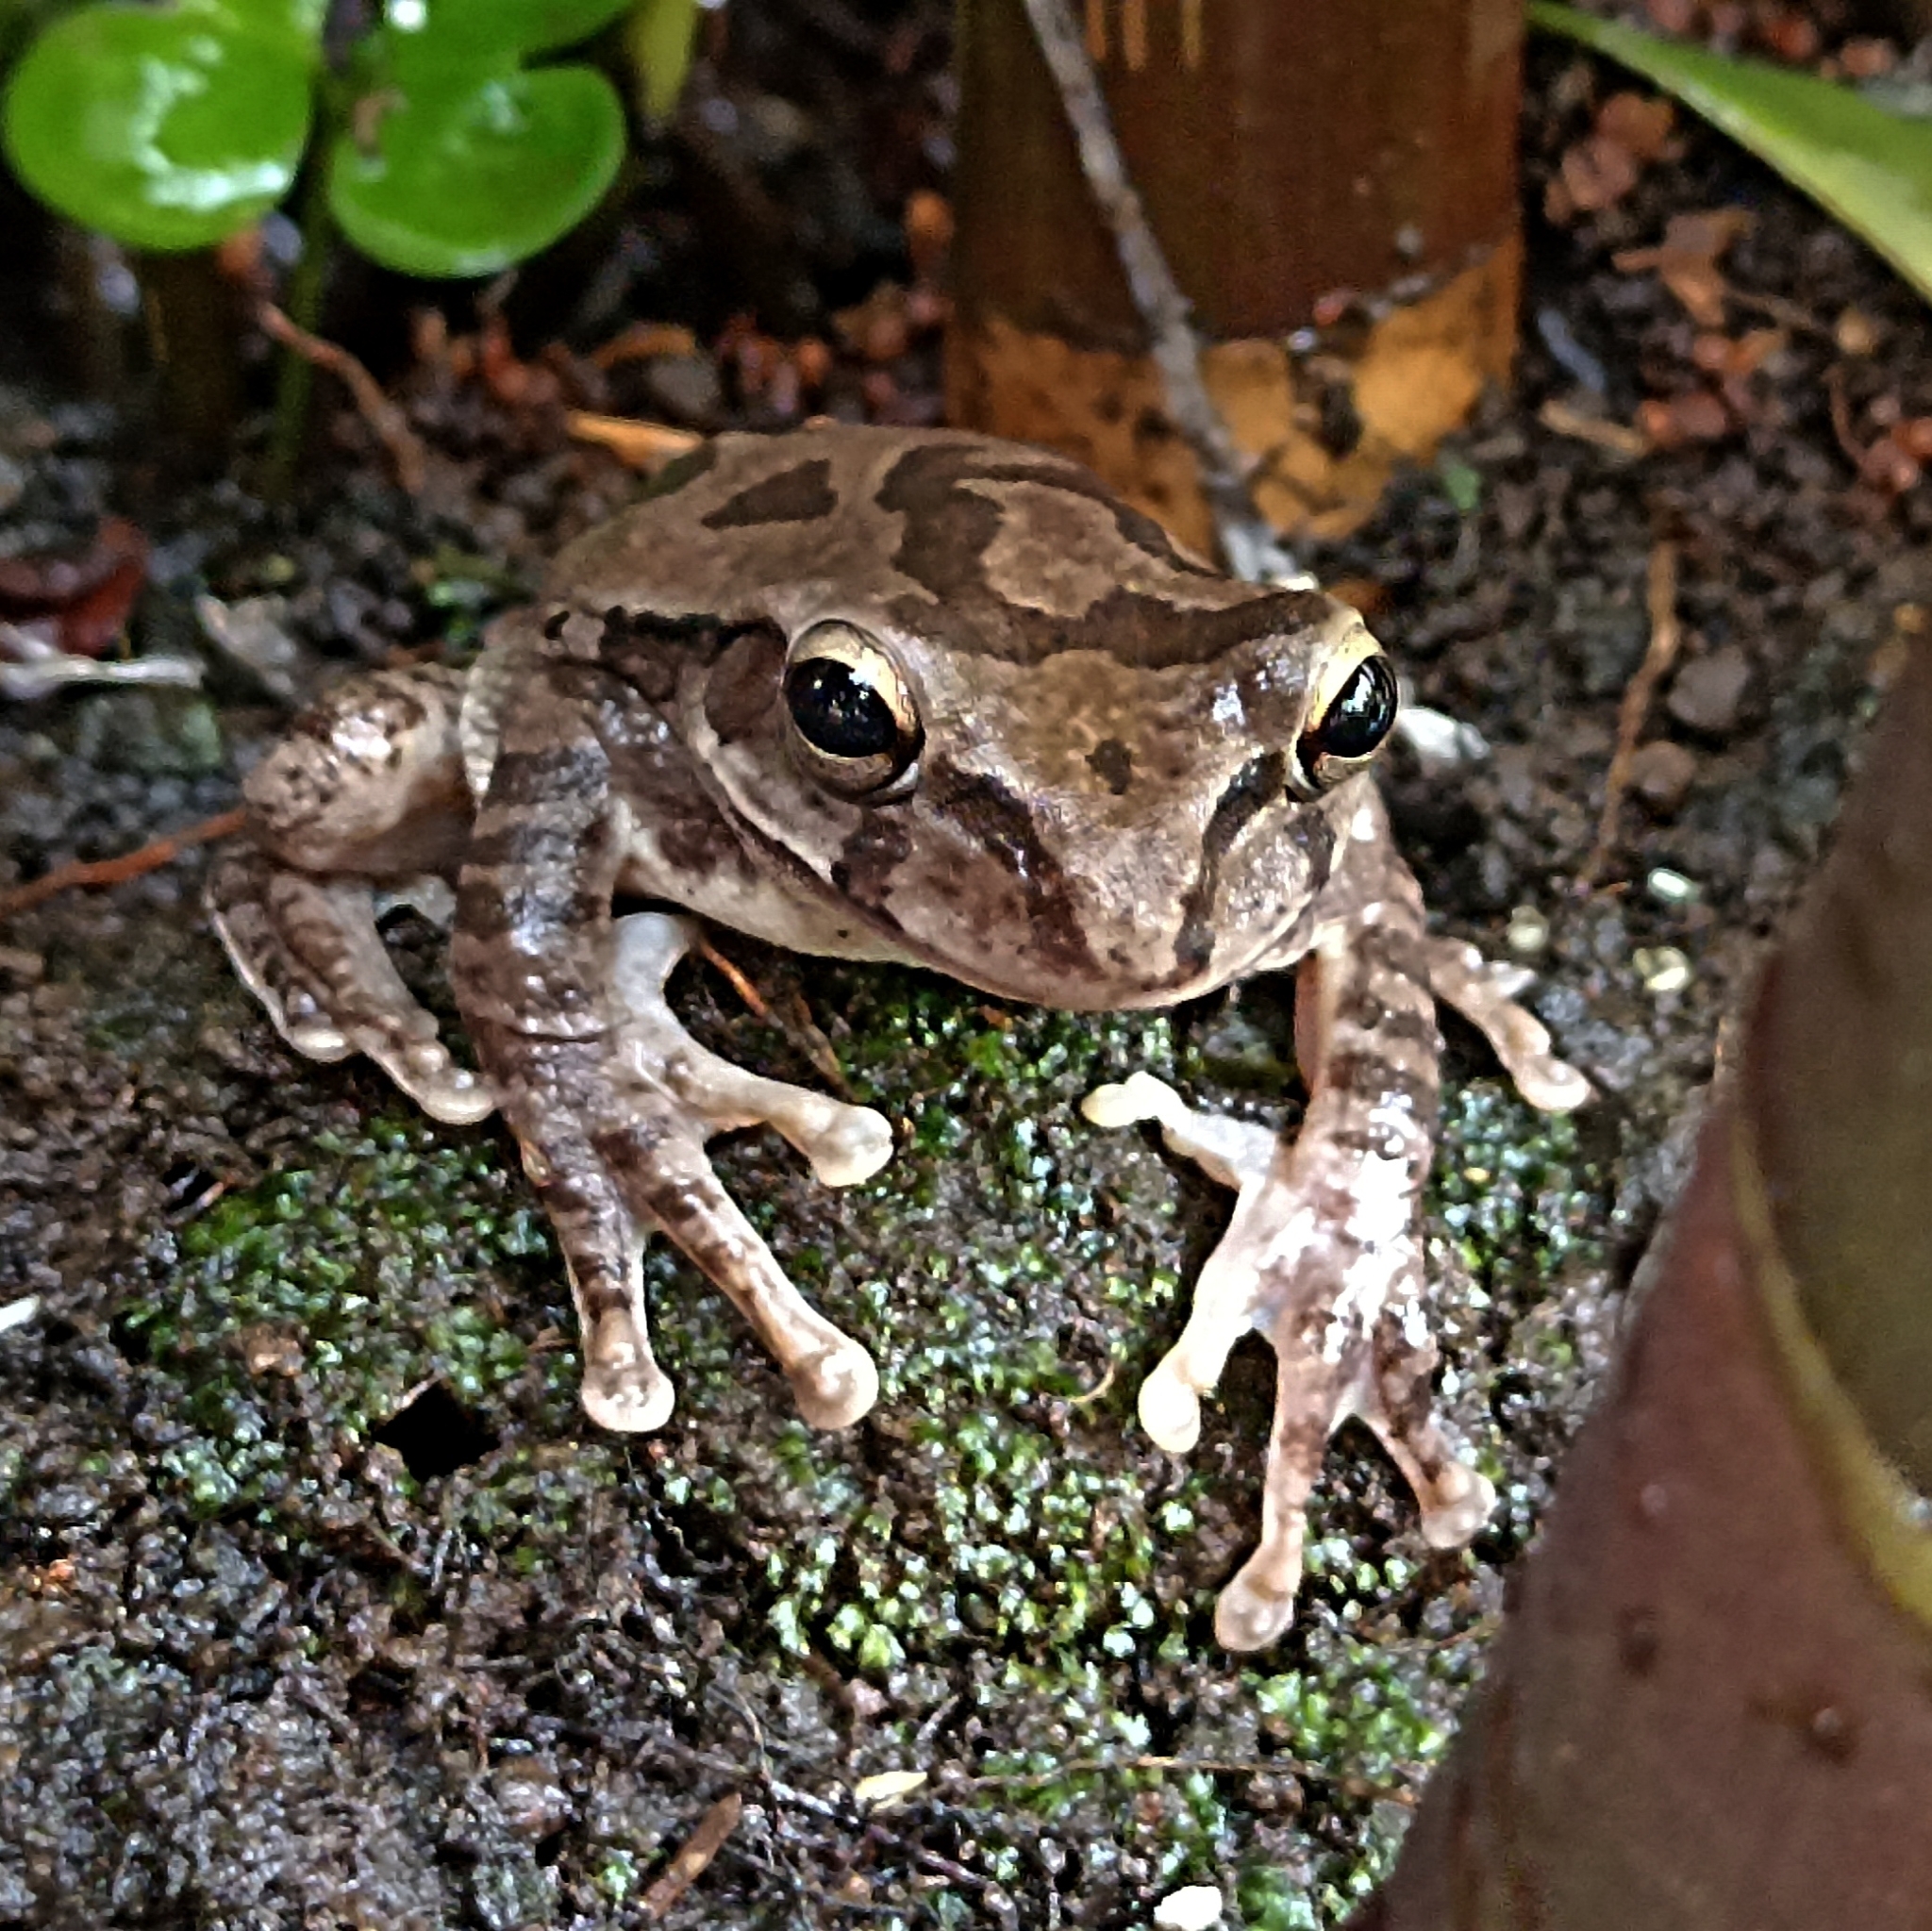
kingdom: Animalia
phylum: Chordata
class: Amphibia
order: Anura
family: Hylidae
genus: Smilisca
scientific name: Smilisca baudinii
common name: Mexican smilisca
